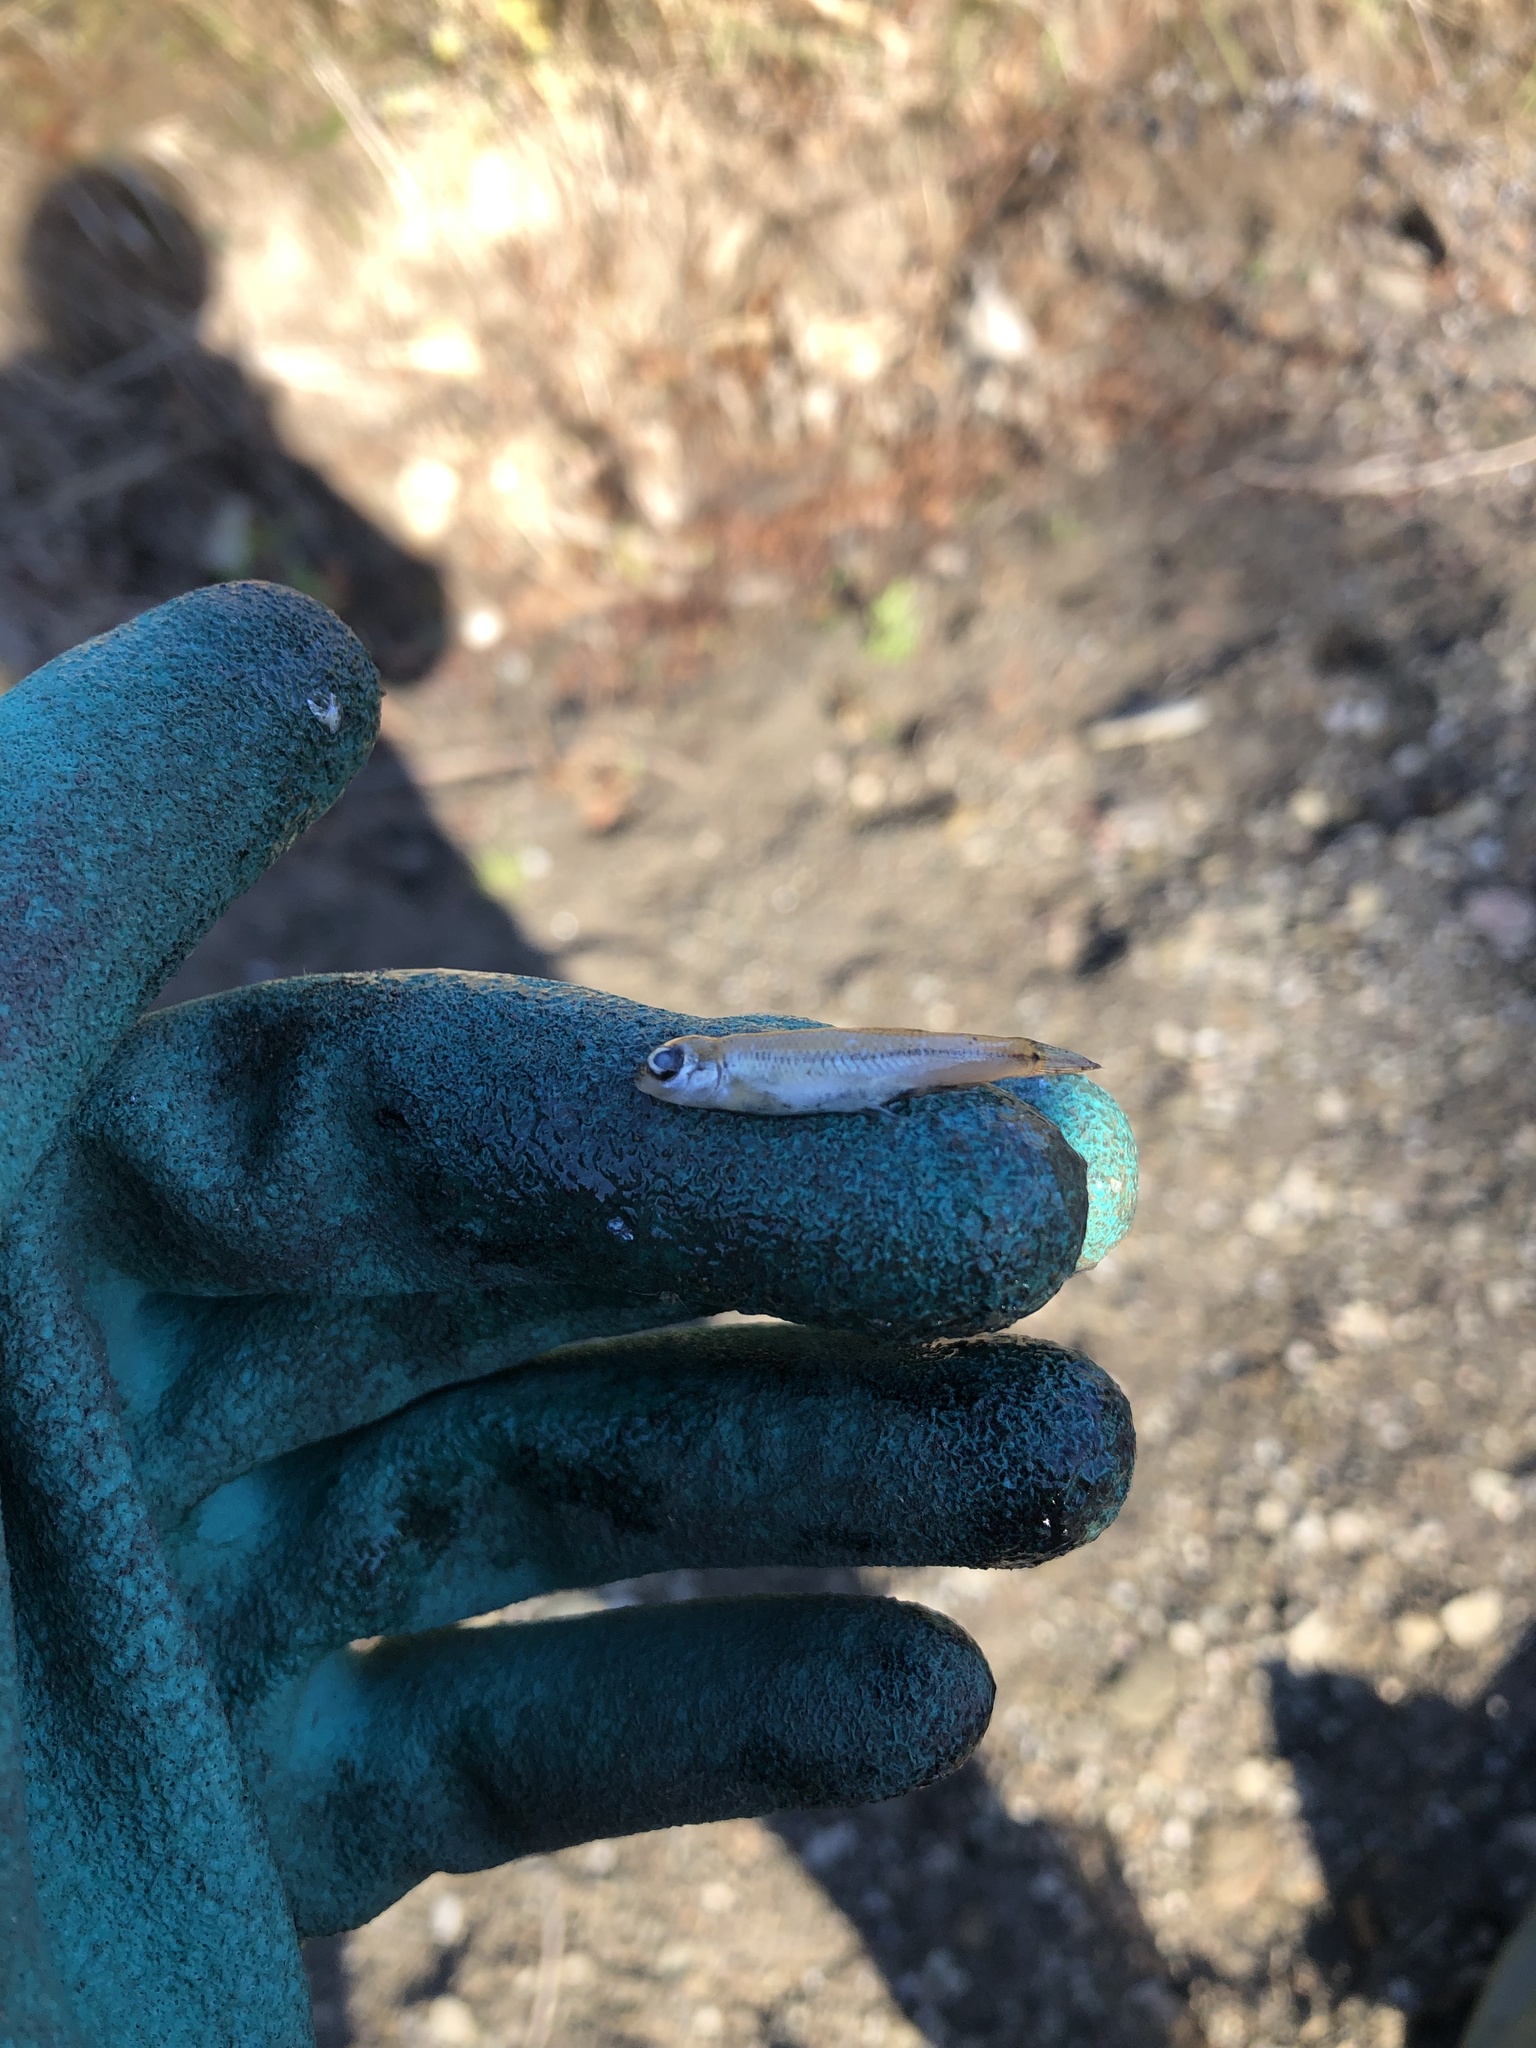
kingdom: Animalia
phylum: Chordata
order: Cypriniformes
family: Cyprinidae
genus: Pimephales
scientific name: Pimephales notatus
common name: Bluntnose minnow
